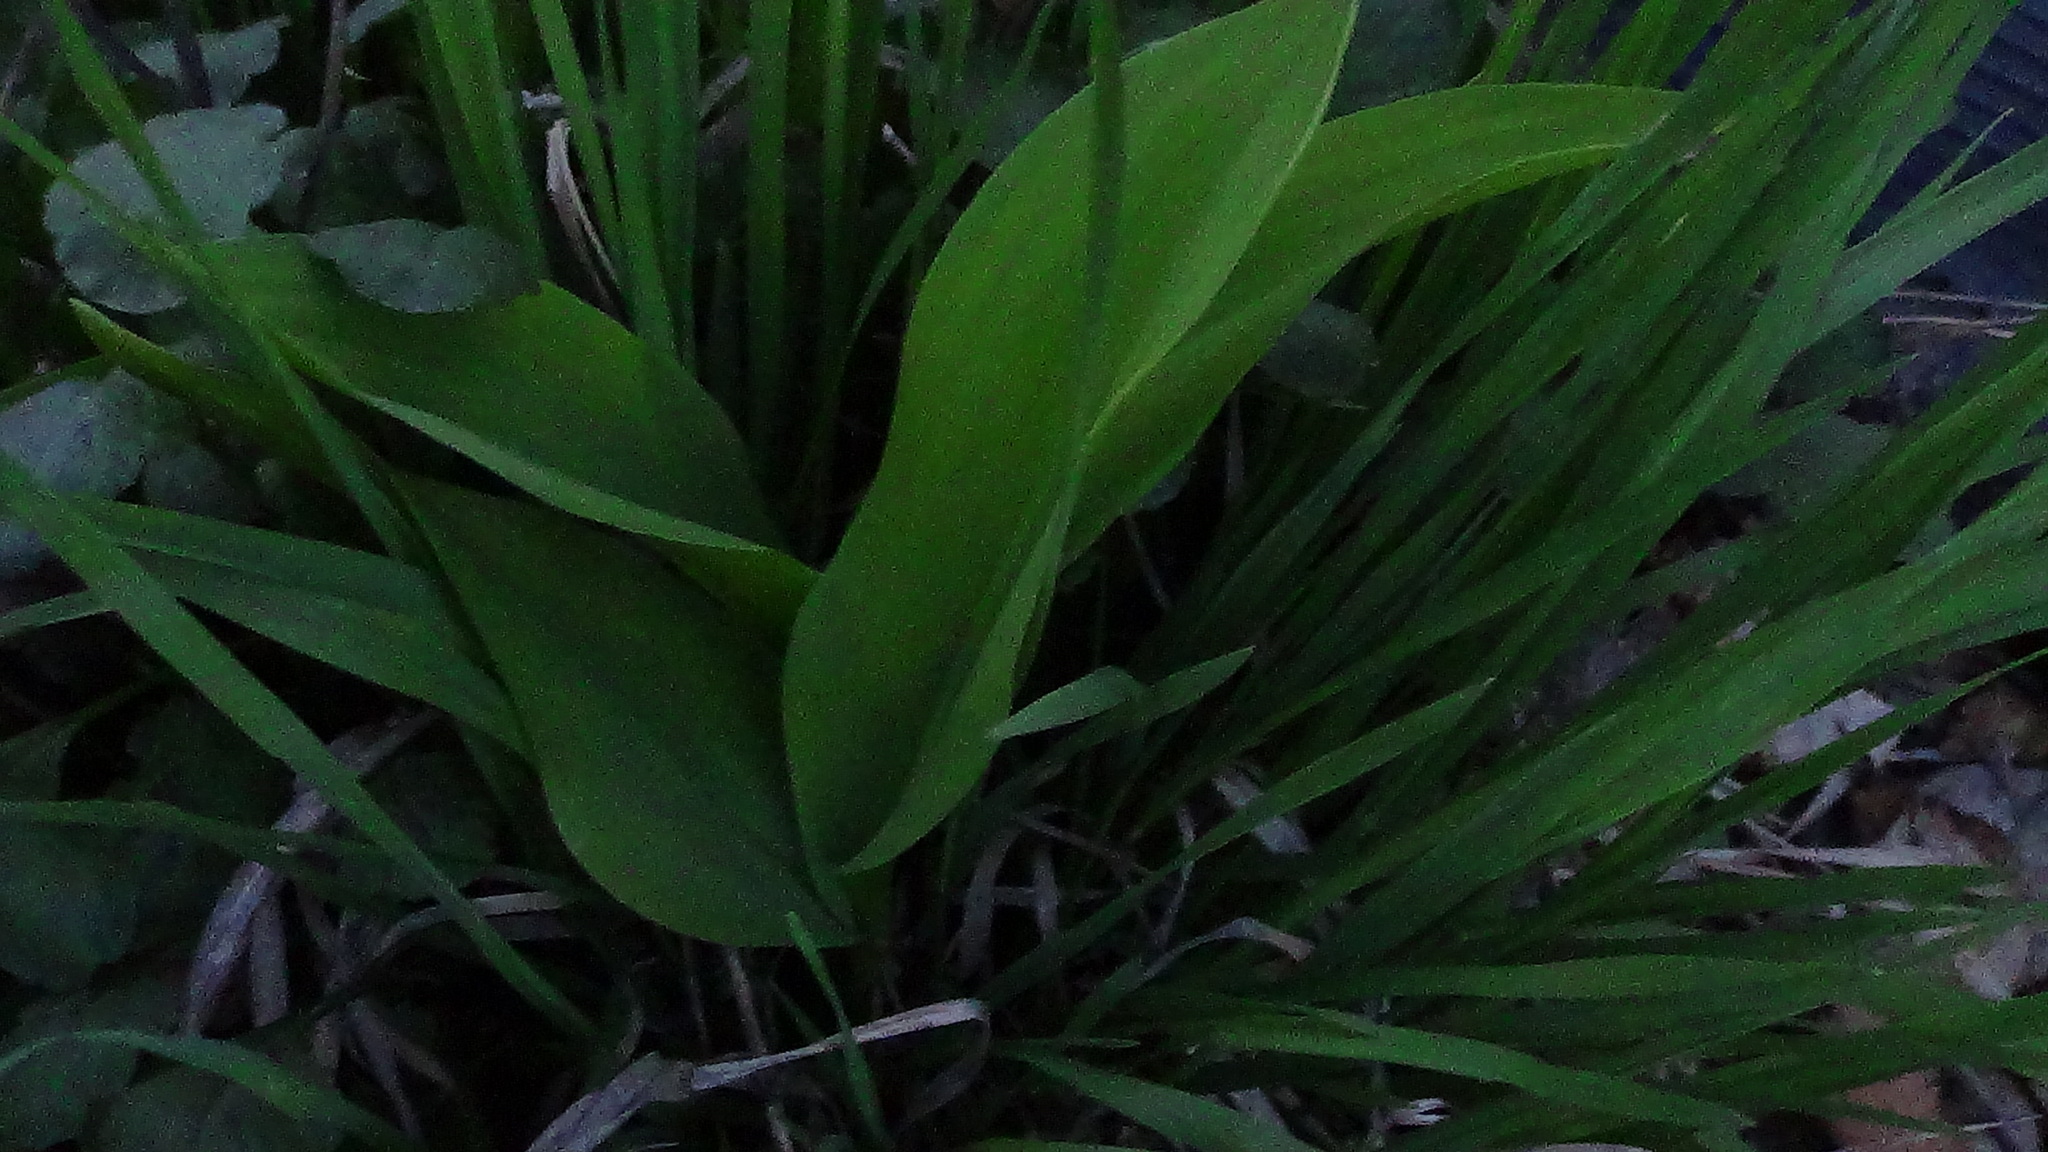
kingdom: Plantae
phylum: Tracheophyta
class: Liliopsida
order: Asparagales
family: Asparagaceae
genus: Convallaria
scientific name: Convallaria majalis
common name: Lily-of-the-valley
